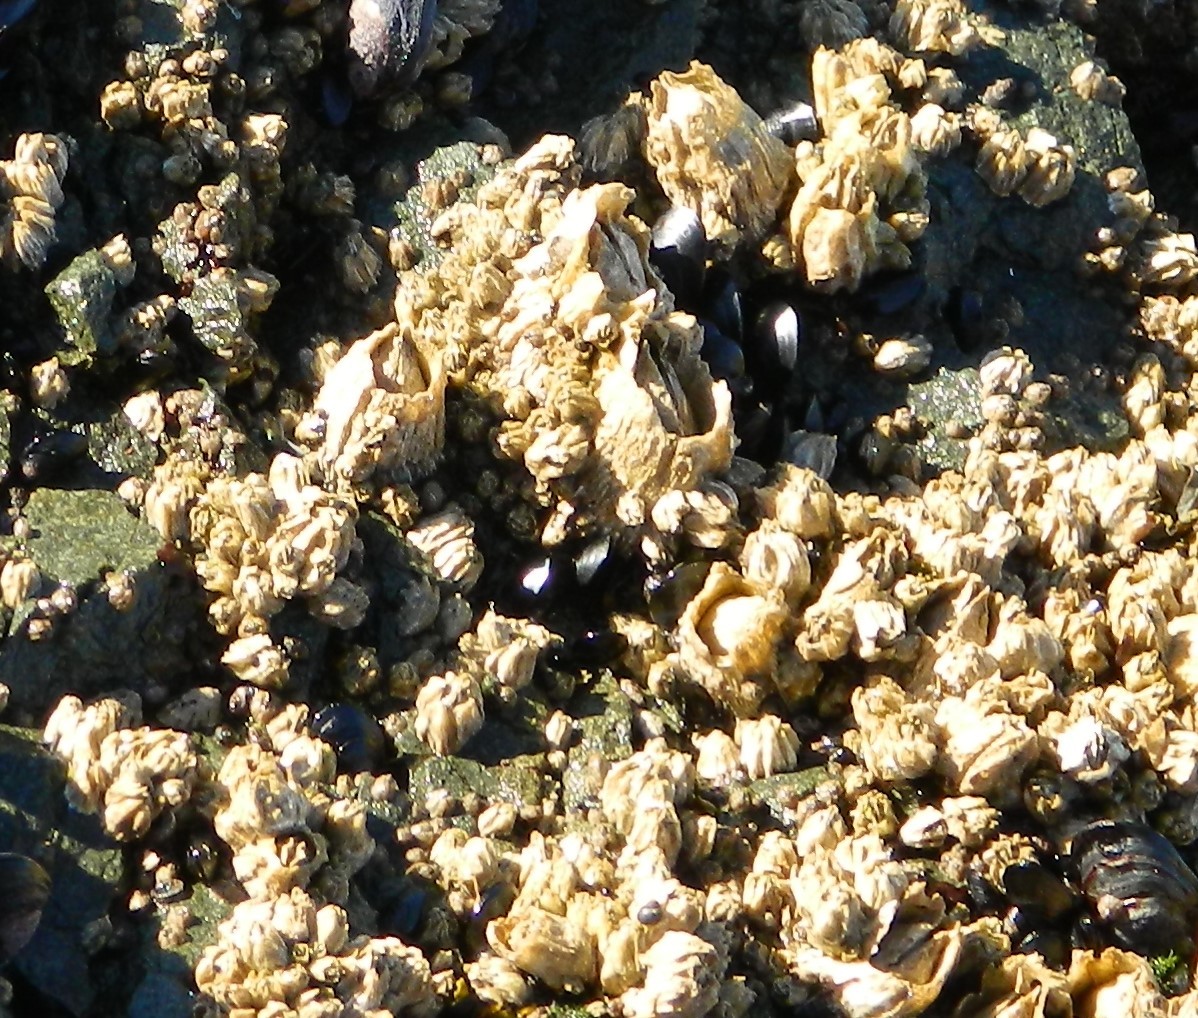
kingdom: Animalia
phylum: Arthropoda
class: Maxillopoda
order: Sessilia
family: Archaeobalanidae
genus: Semibalanus
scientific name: Semibalanus cariosus
